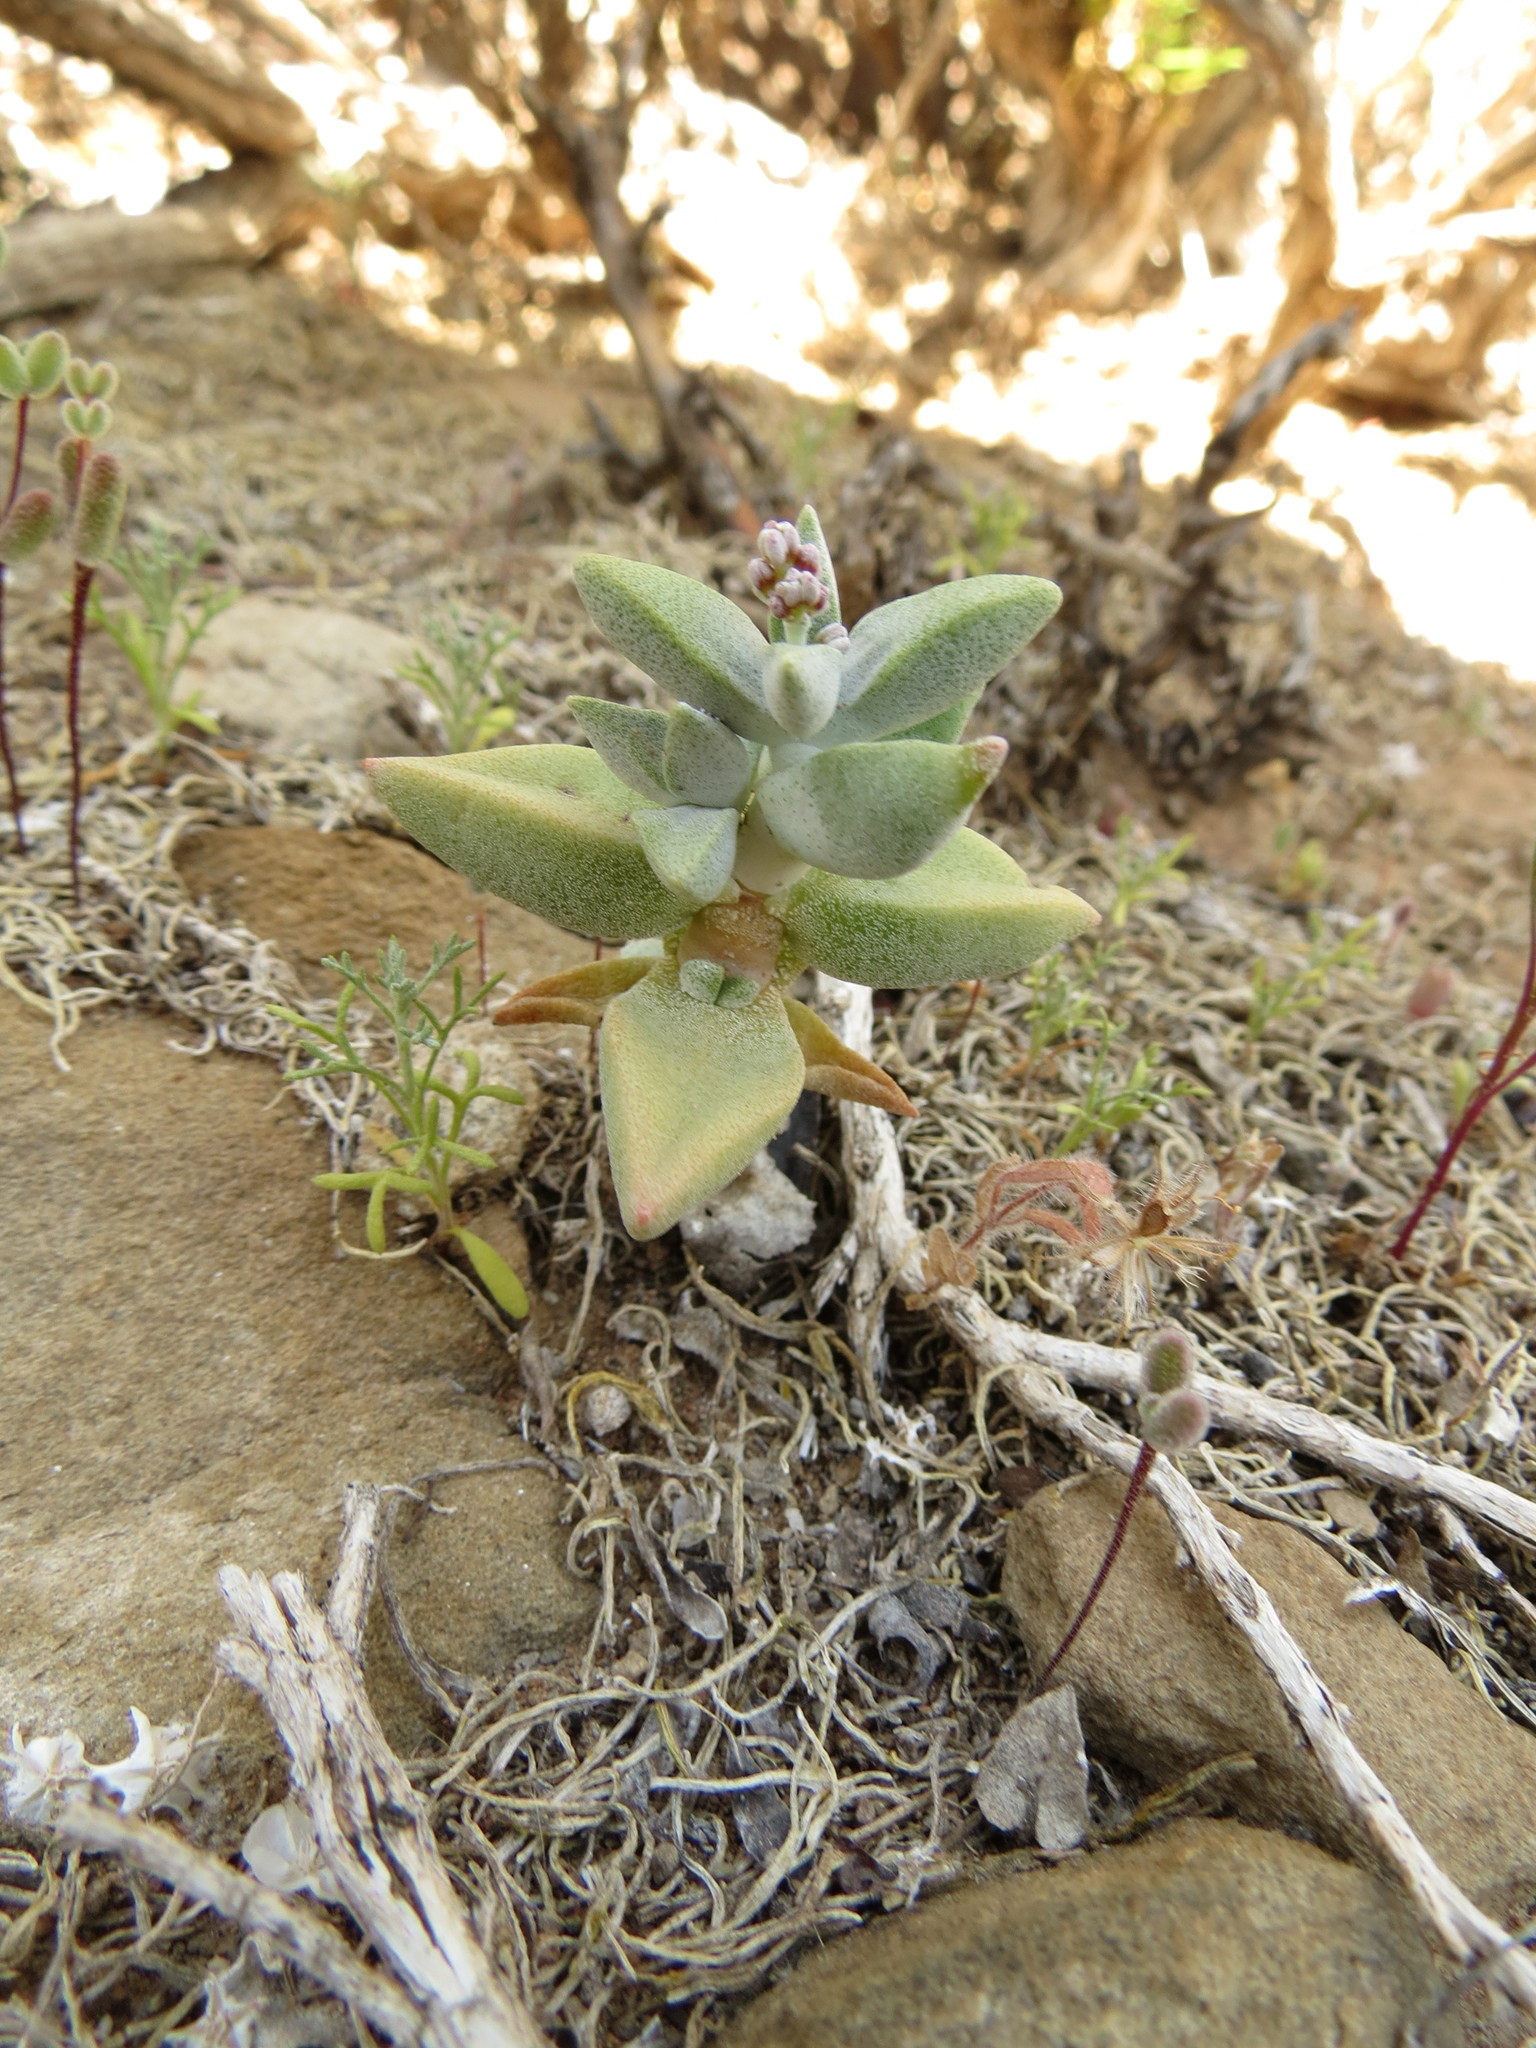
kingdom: Plantae
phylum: Tracheophyta
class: Magnoliopsida
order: Saxifragales
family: Crassulaceae
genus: Crassula
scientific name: Crassula deltoidea
